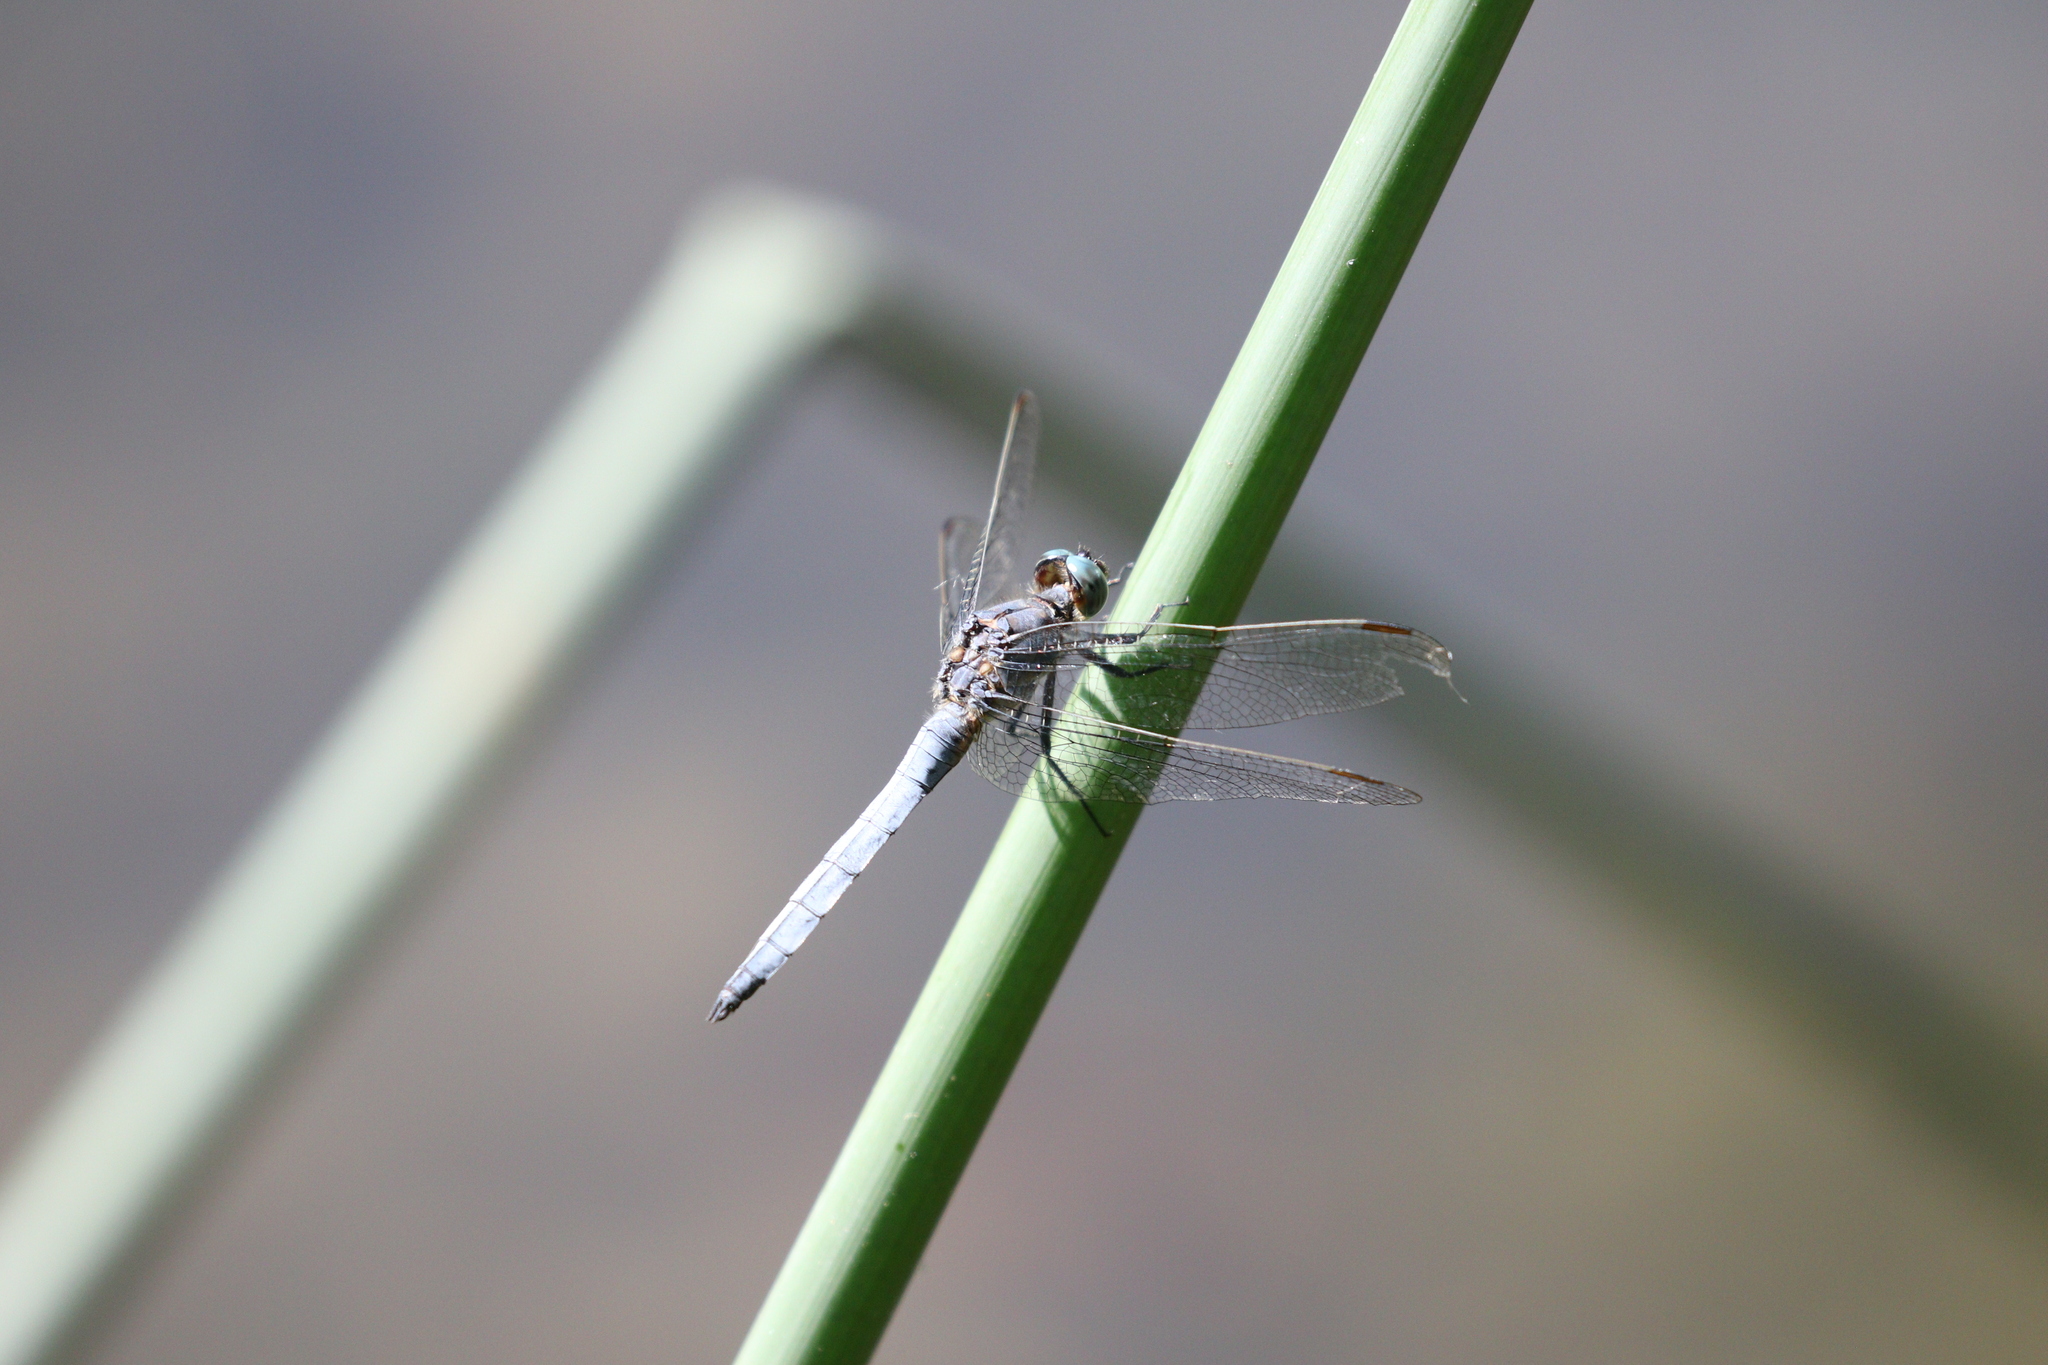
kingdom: Animalia
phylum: Arthropoda
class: Insecta
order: Odonata
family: Libellulidae
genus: Orthetrum
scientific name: Orthetrum coerulescens
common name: Keeled skimmer
